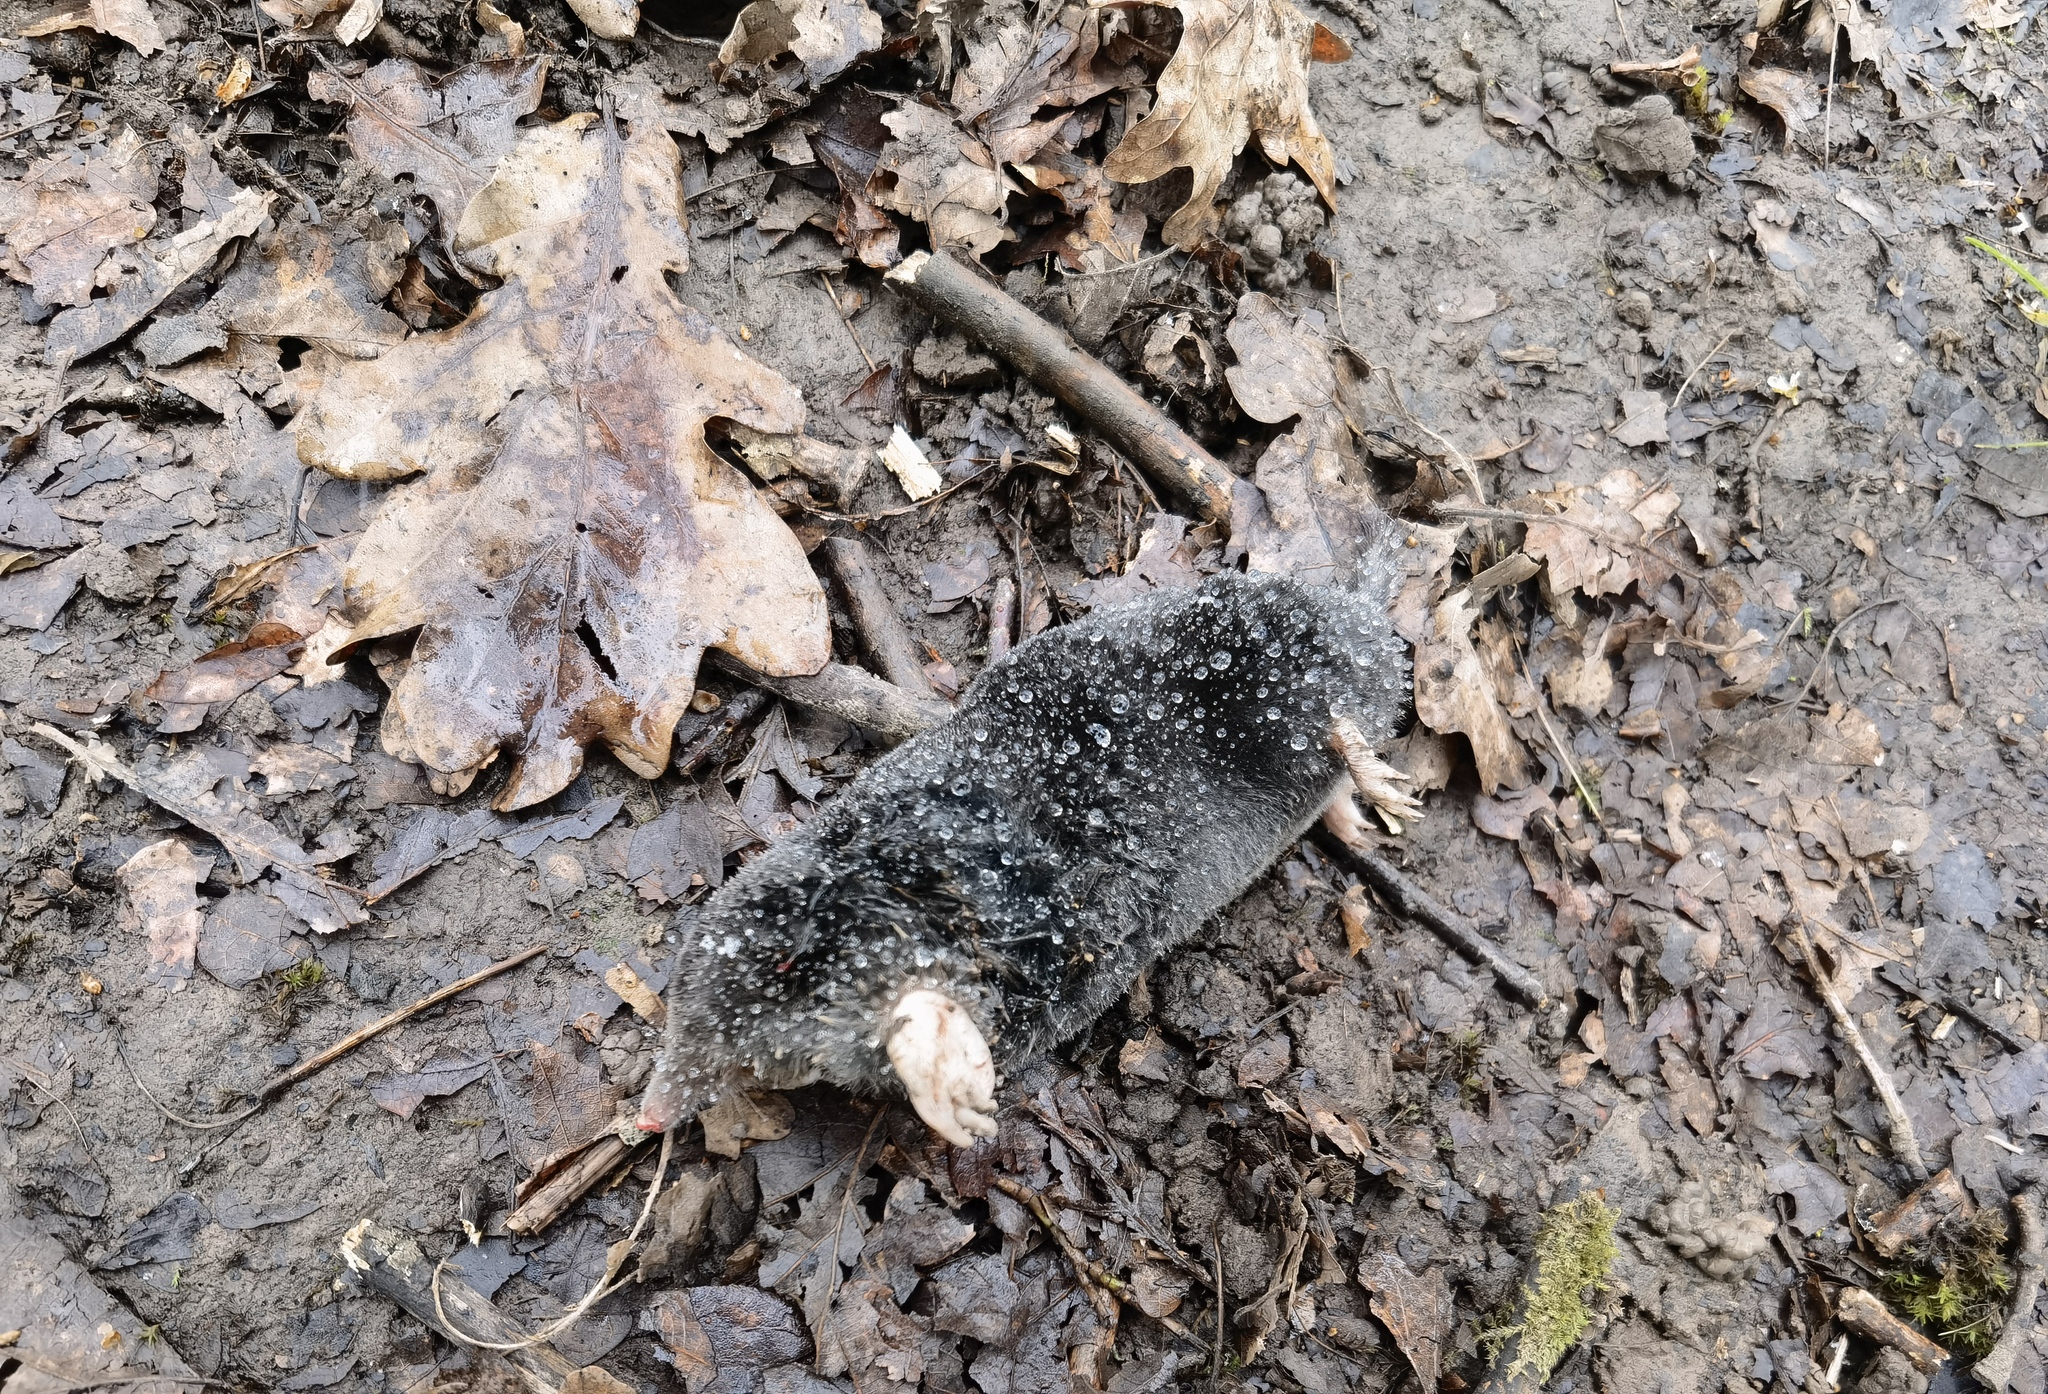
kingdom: Animalia
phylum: Chordata
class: Mammalia
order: Soricomorpha
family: Talpidae
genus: Talpa
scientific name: Talpa europaea
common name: European mole
